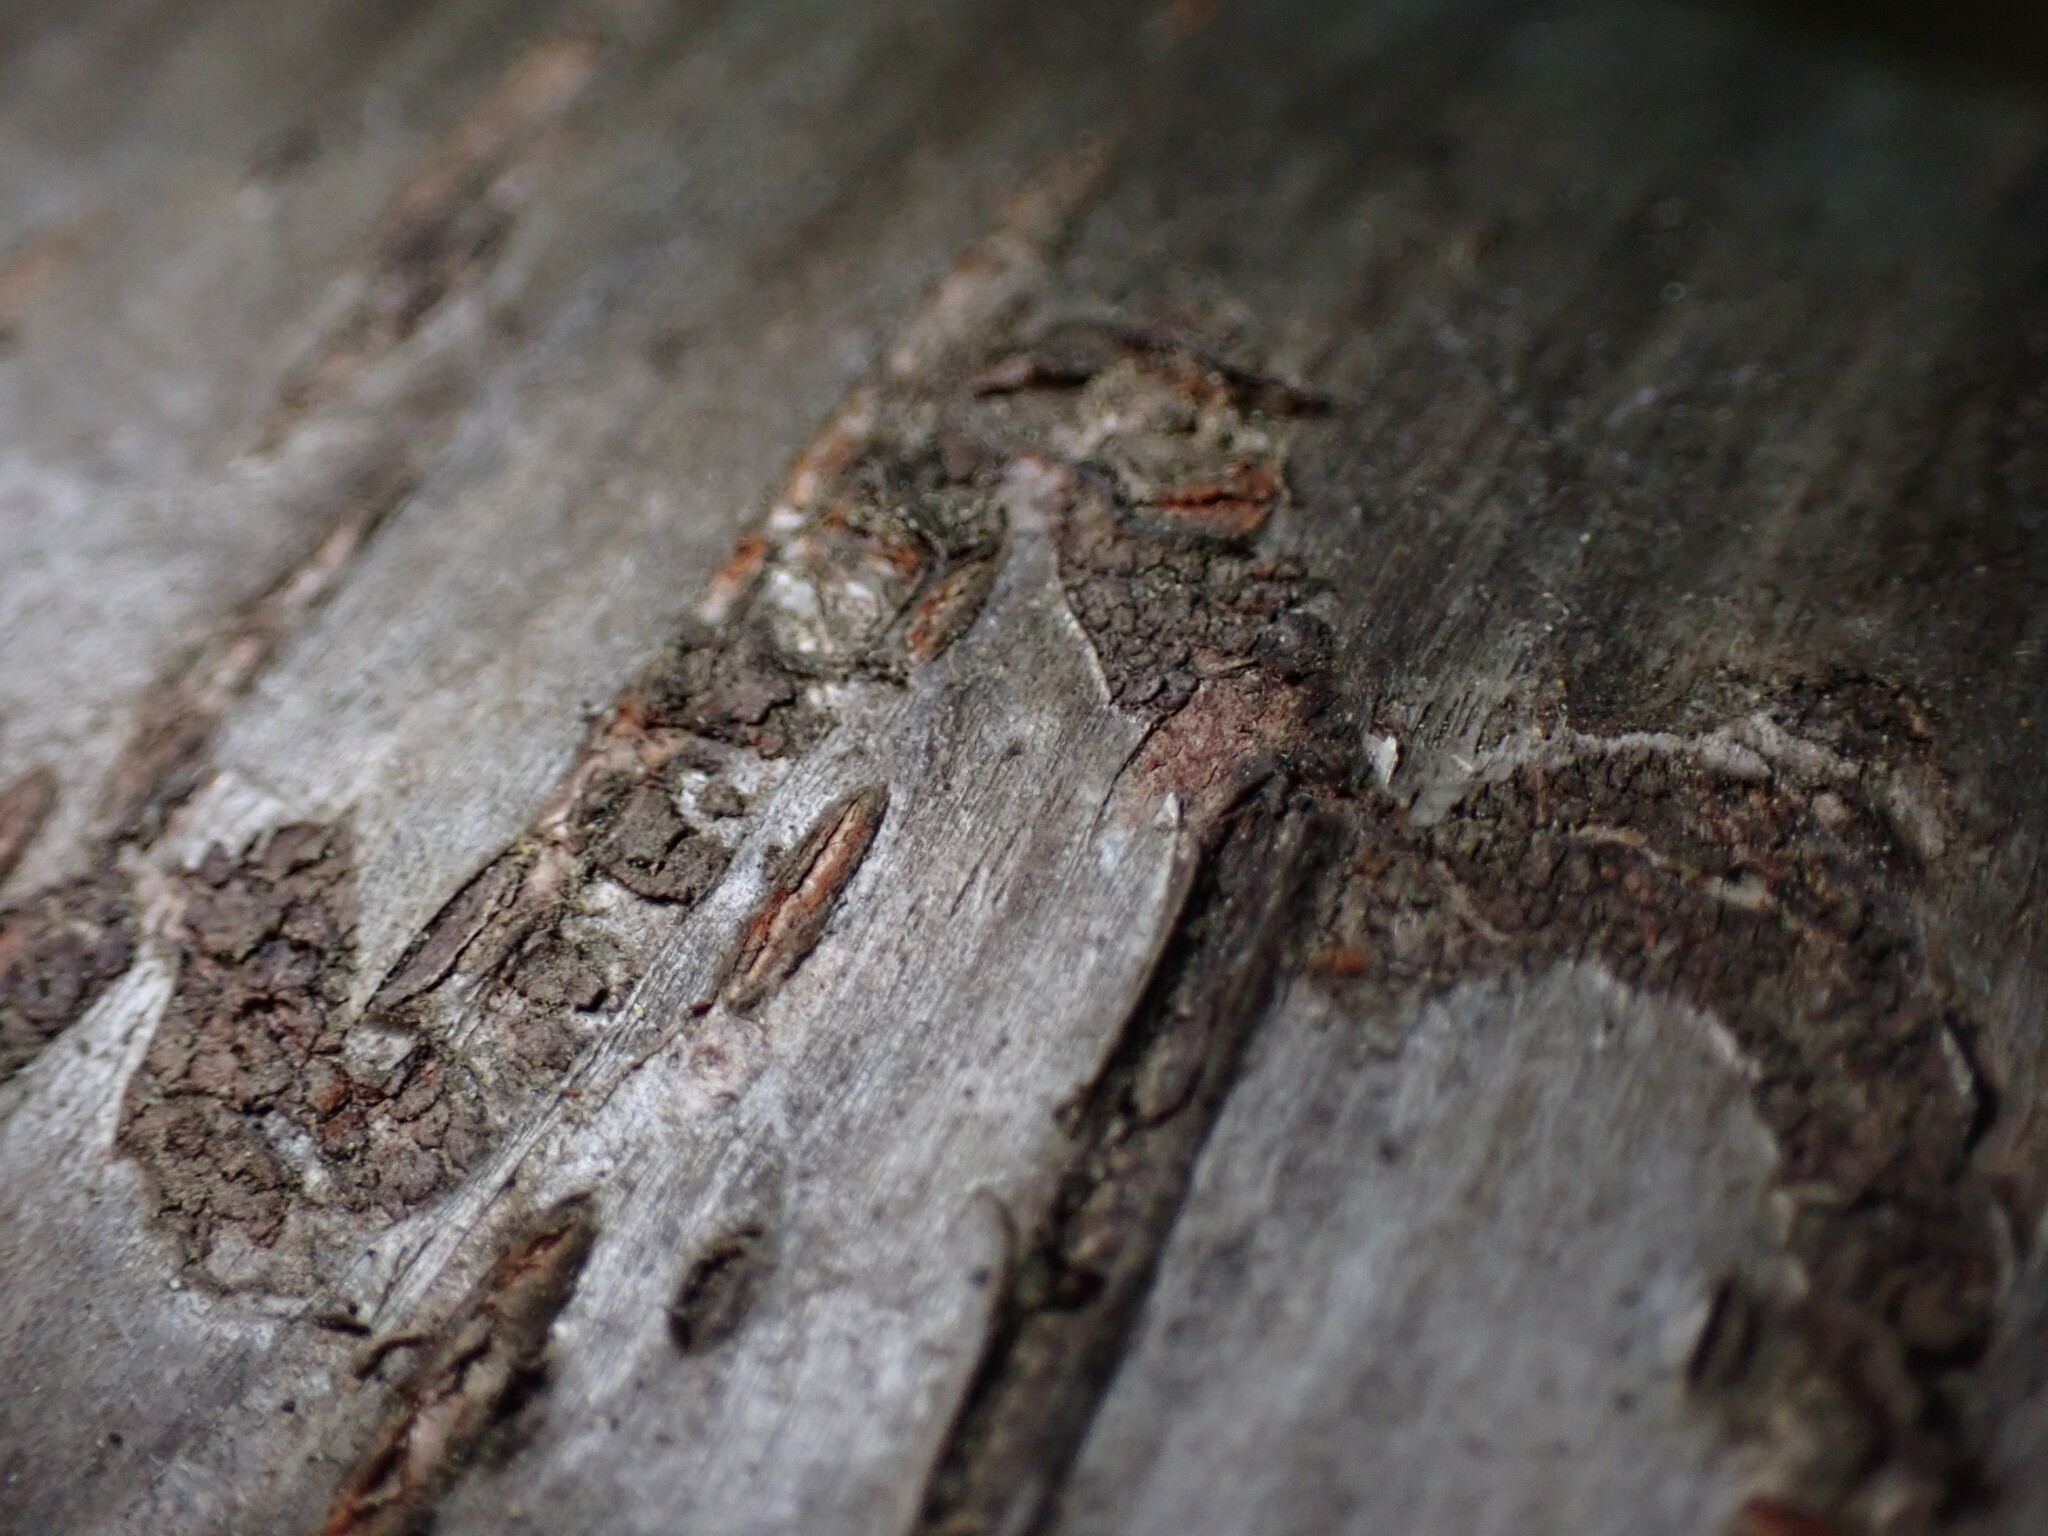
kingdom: Animalia
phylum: Arthropoda
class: Insecta
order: Lepidoptera
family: Gracillariidae
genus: Marmara
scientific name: Marmara serotinella
